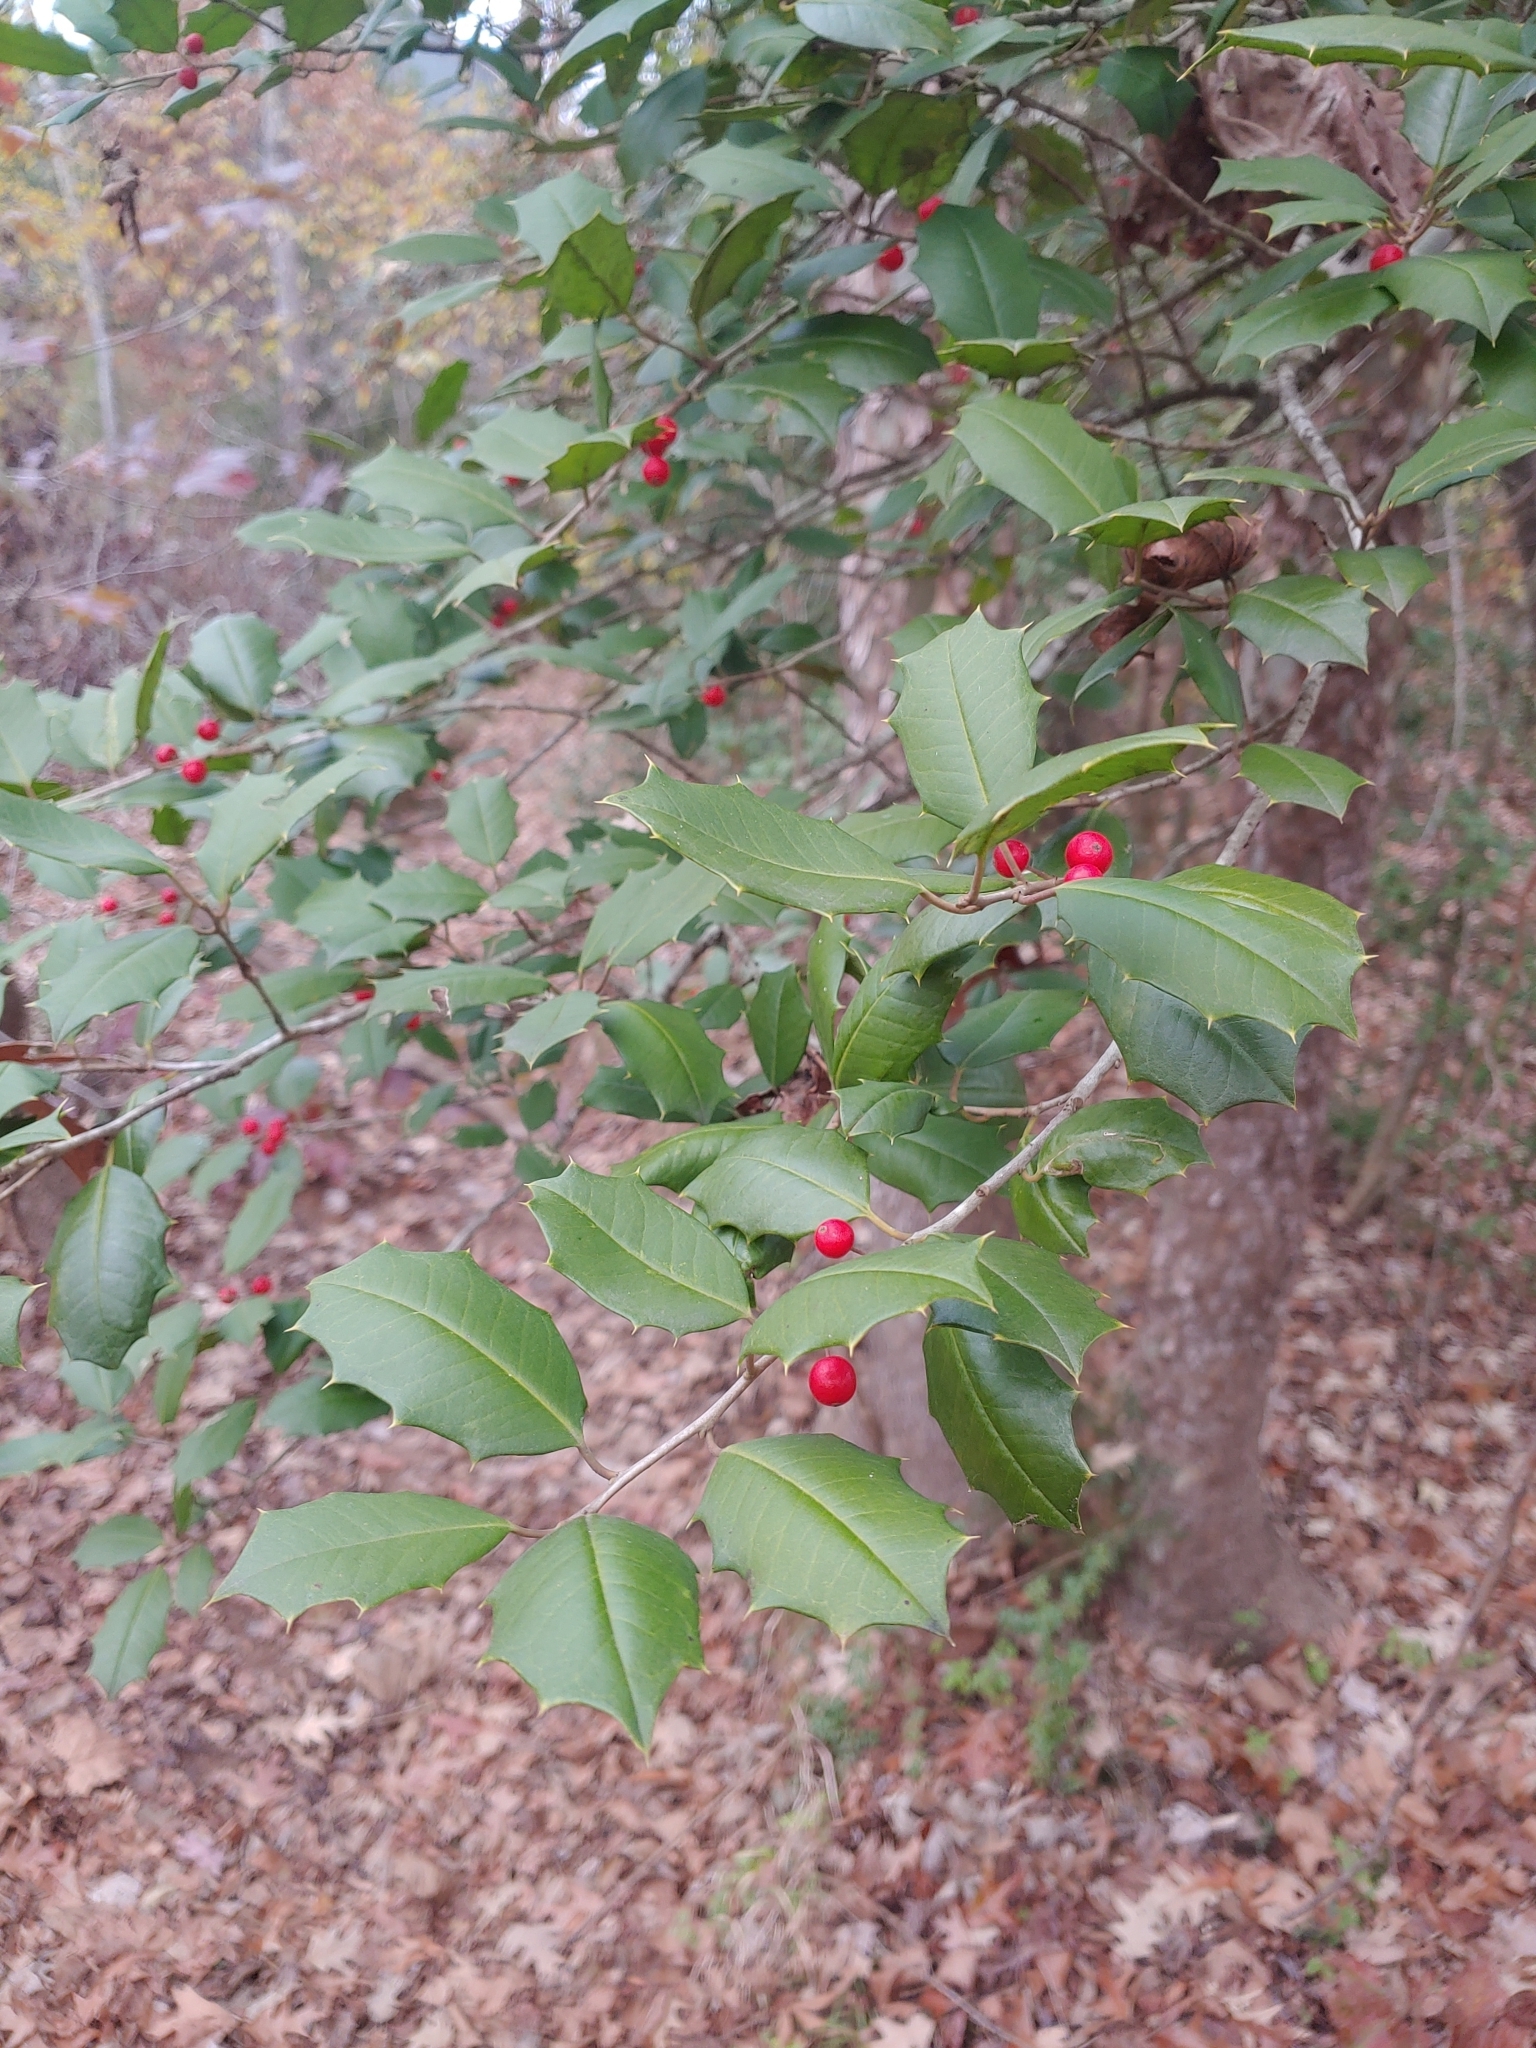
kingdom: Plantae
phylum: Tracheophyta
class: Magnoliopsida
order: Aquifoliales
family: Aquifoliaceae
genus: Ilex
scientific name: Ilex opaca
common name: American holly
